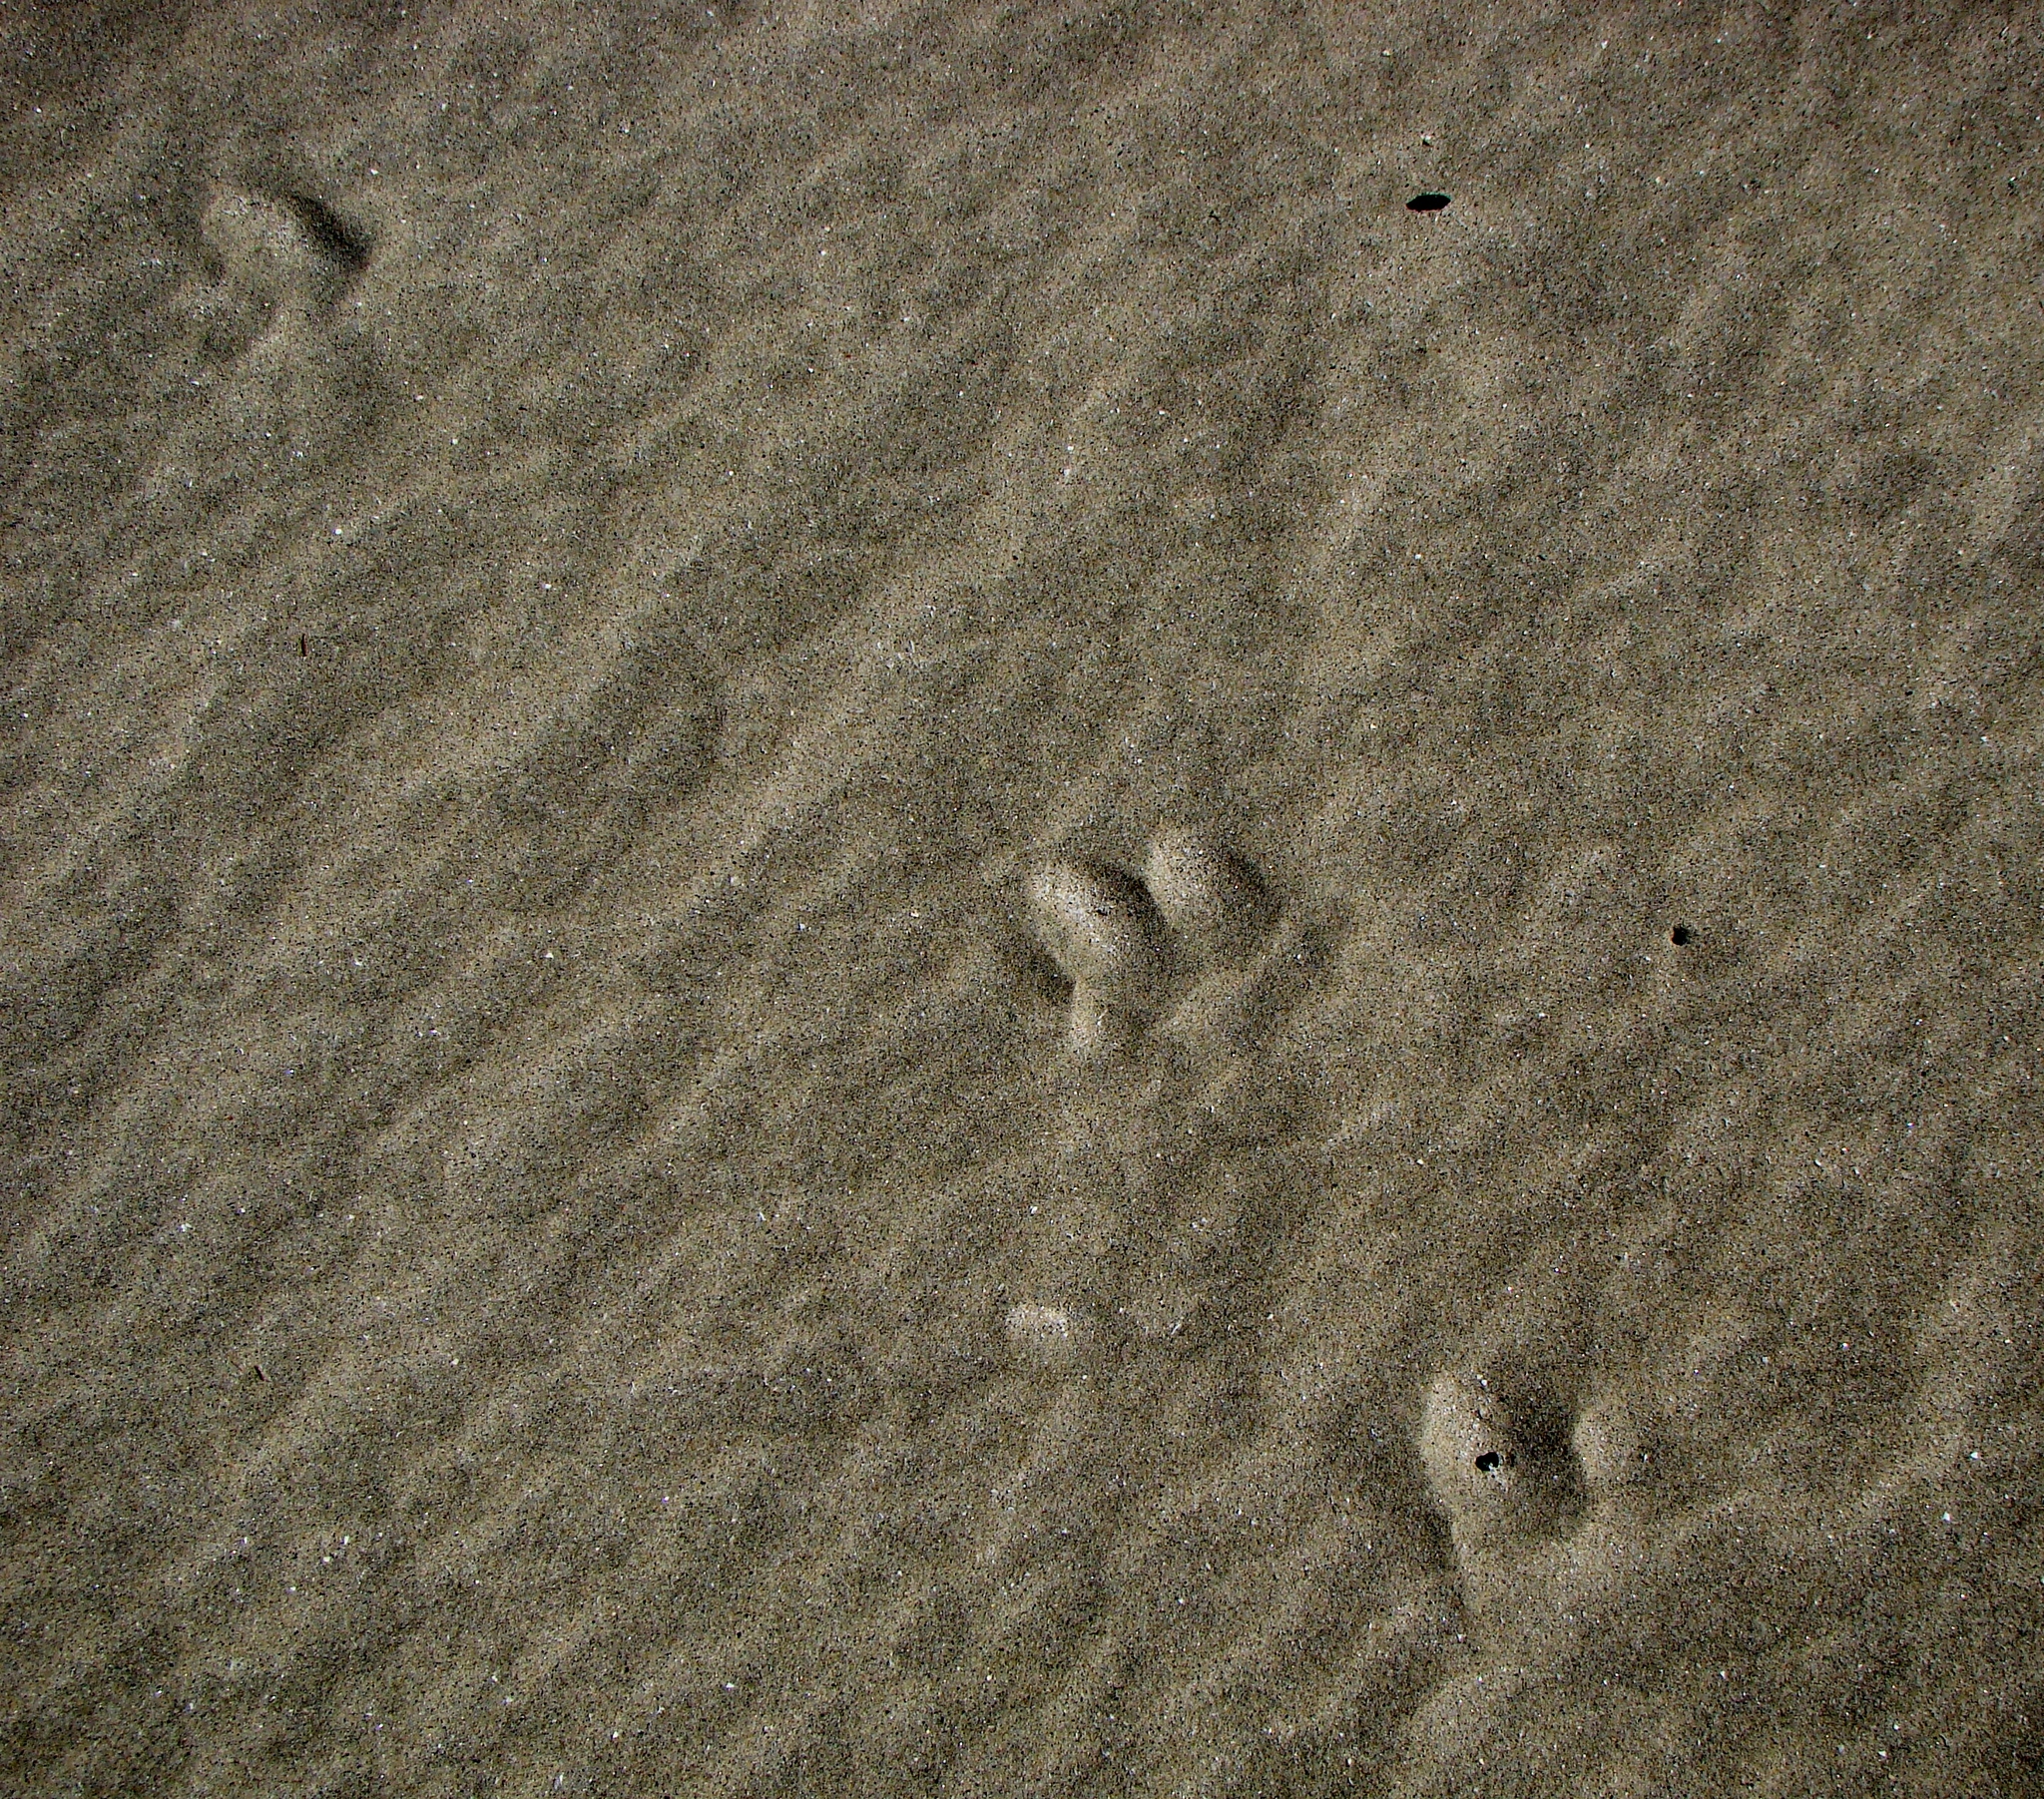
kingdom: Animalia
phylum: Chordata
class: Mammalia
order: Artiodactyla
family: Cervidae
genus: Odocoileus
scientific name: Odocoileus virginianus
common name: White-tailed deer
